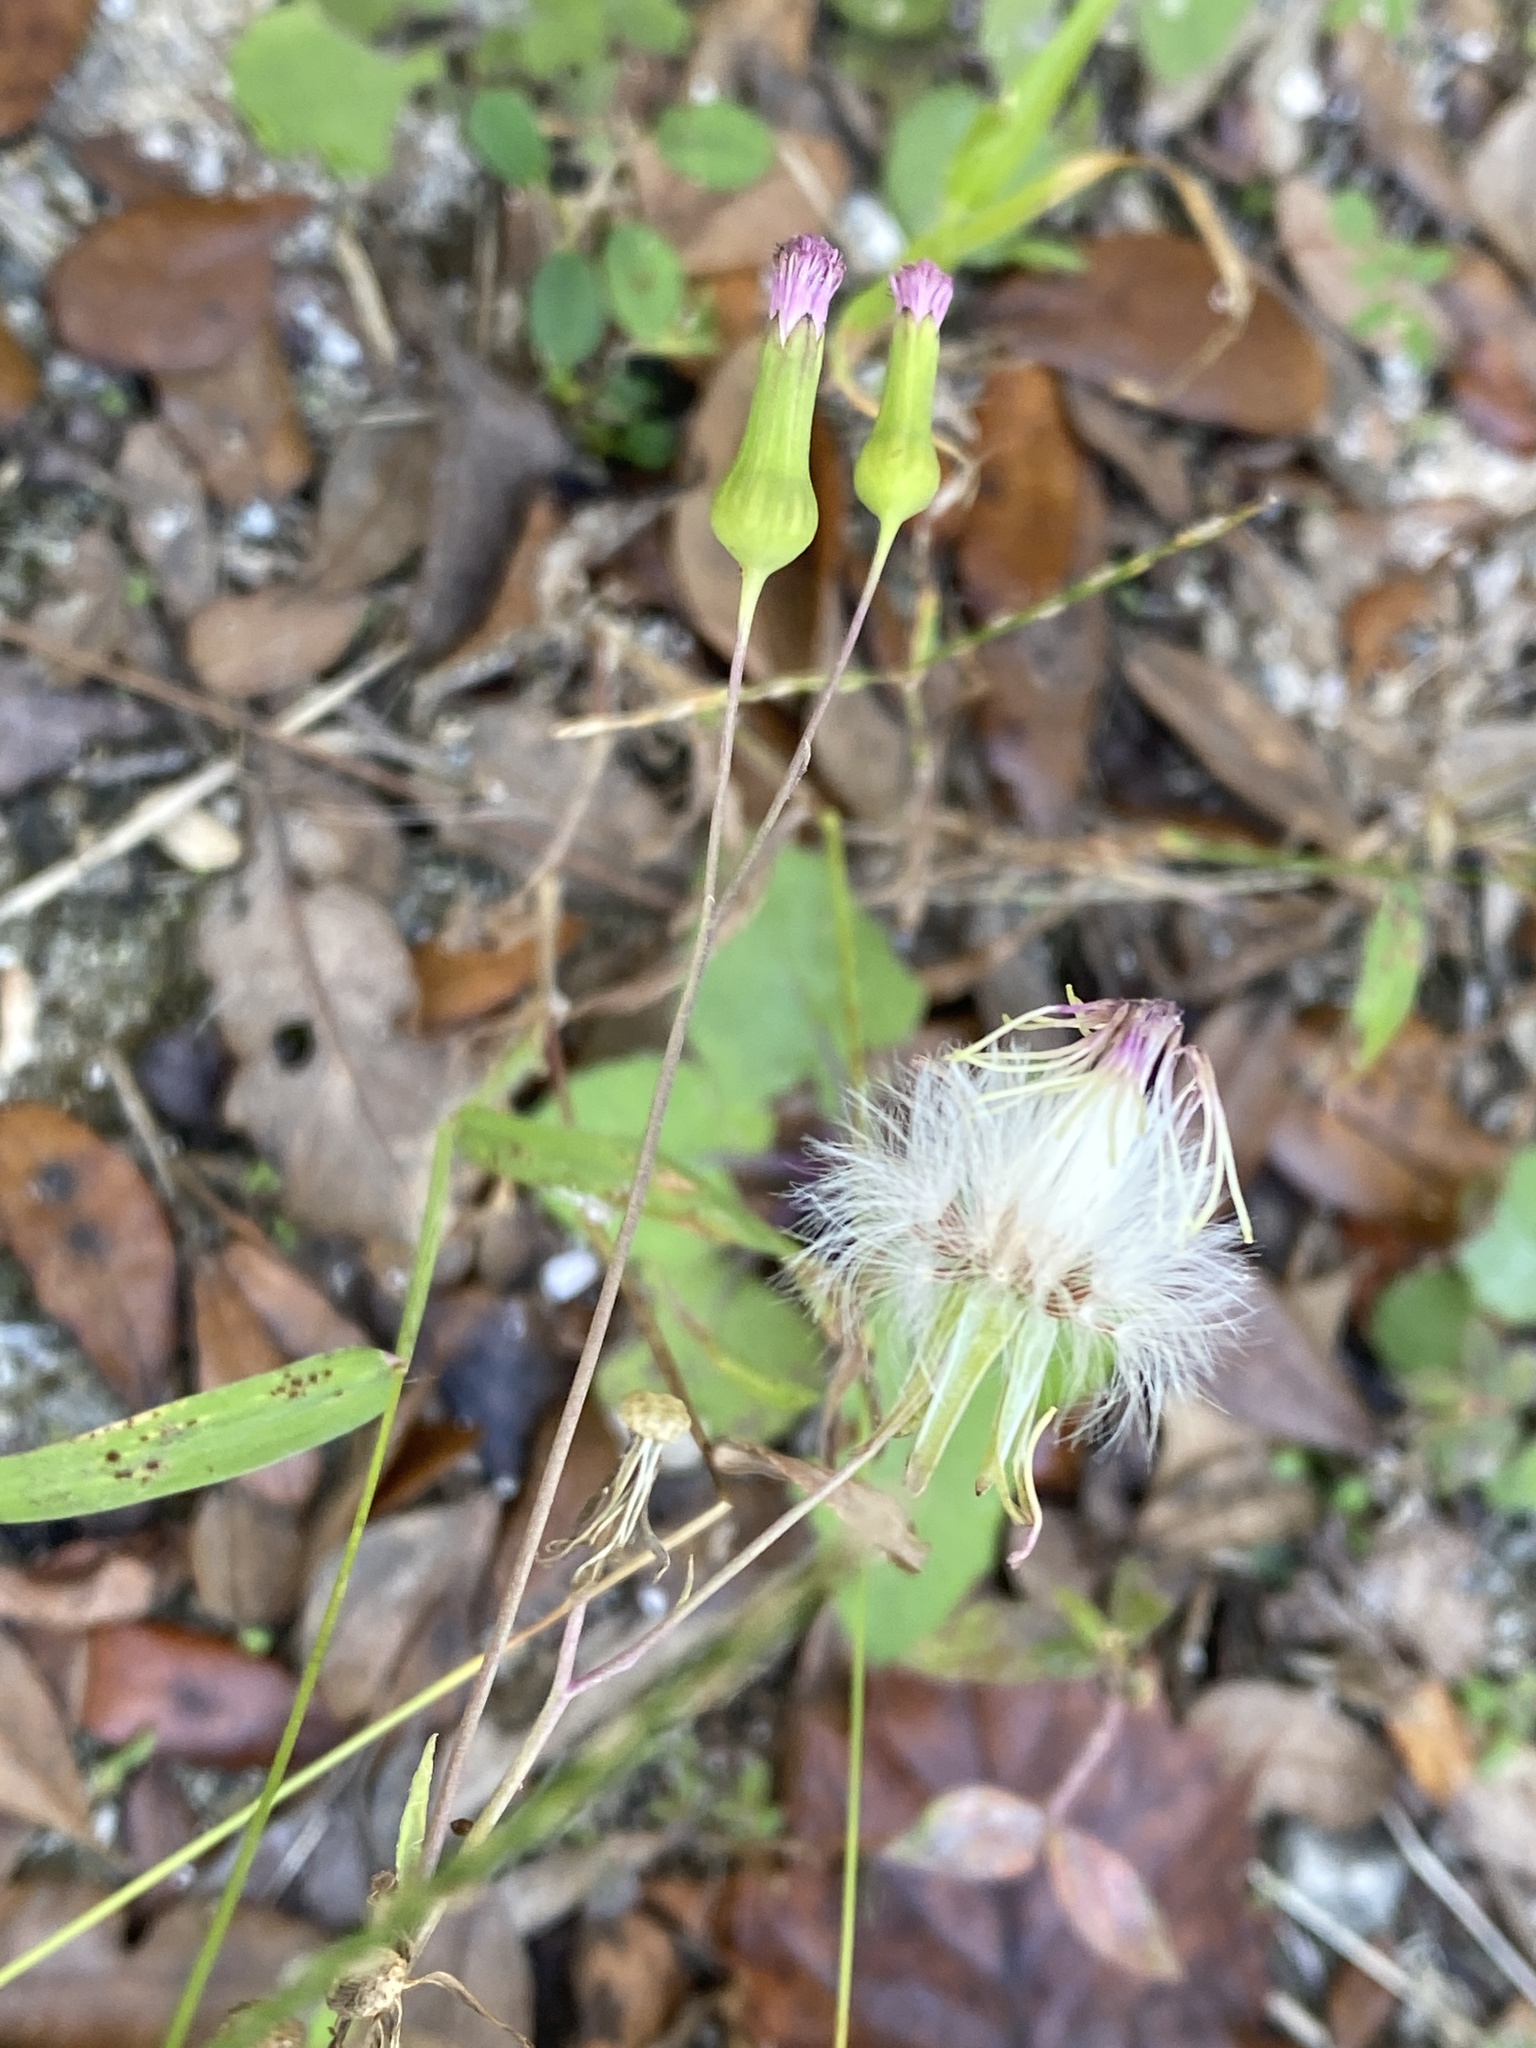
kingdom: Plantae
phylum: Tracheophyta
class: Magnoliopsida
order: Asterales
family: Asteraceae
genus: Emilia
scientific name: Emilia sonchifolia
